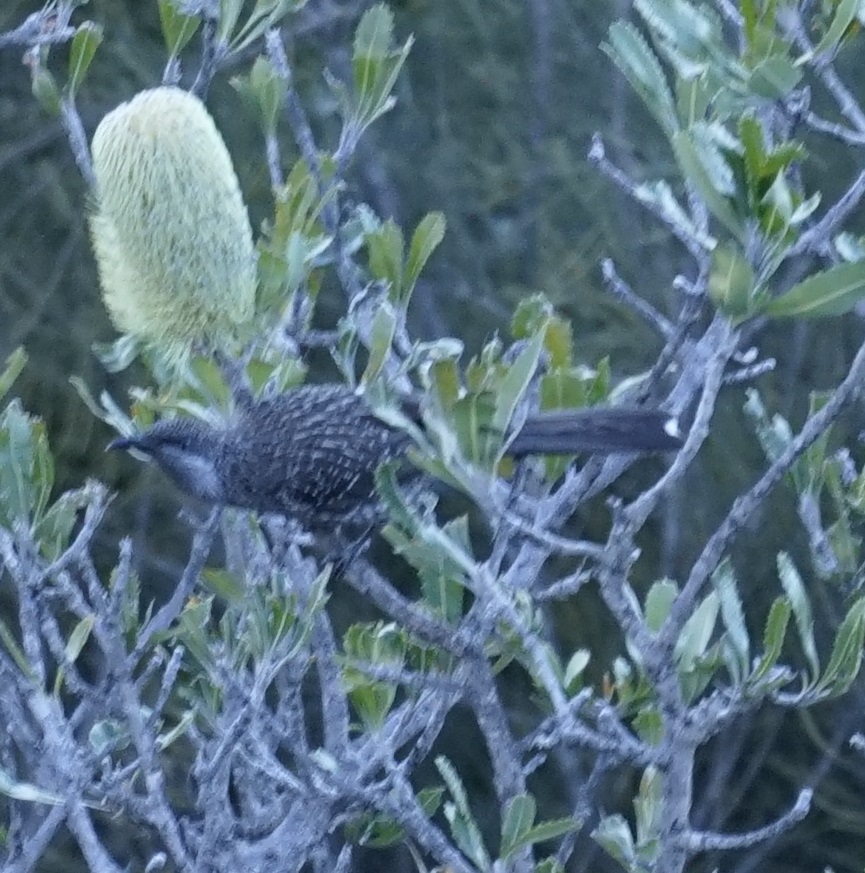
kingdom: Animalia
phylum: Chordata
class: Aves
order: Passeriformes
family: Meliphagidae
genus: Anthochaera
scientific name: Anthochaera chrysoptera
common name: Little wattlebird
